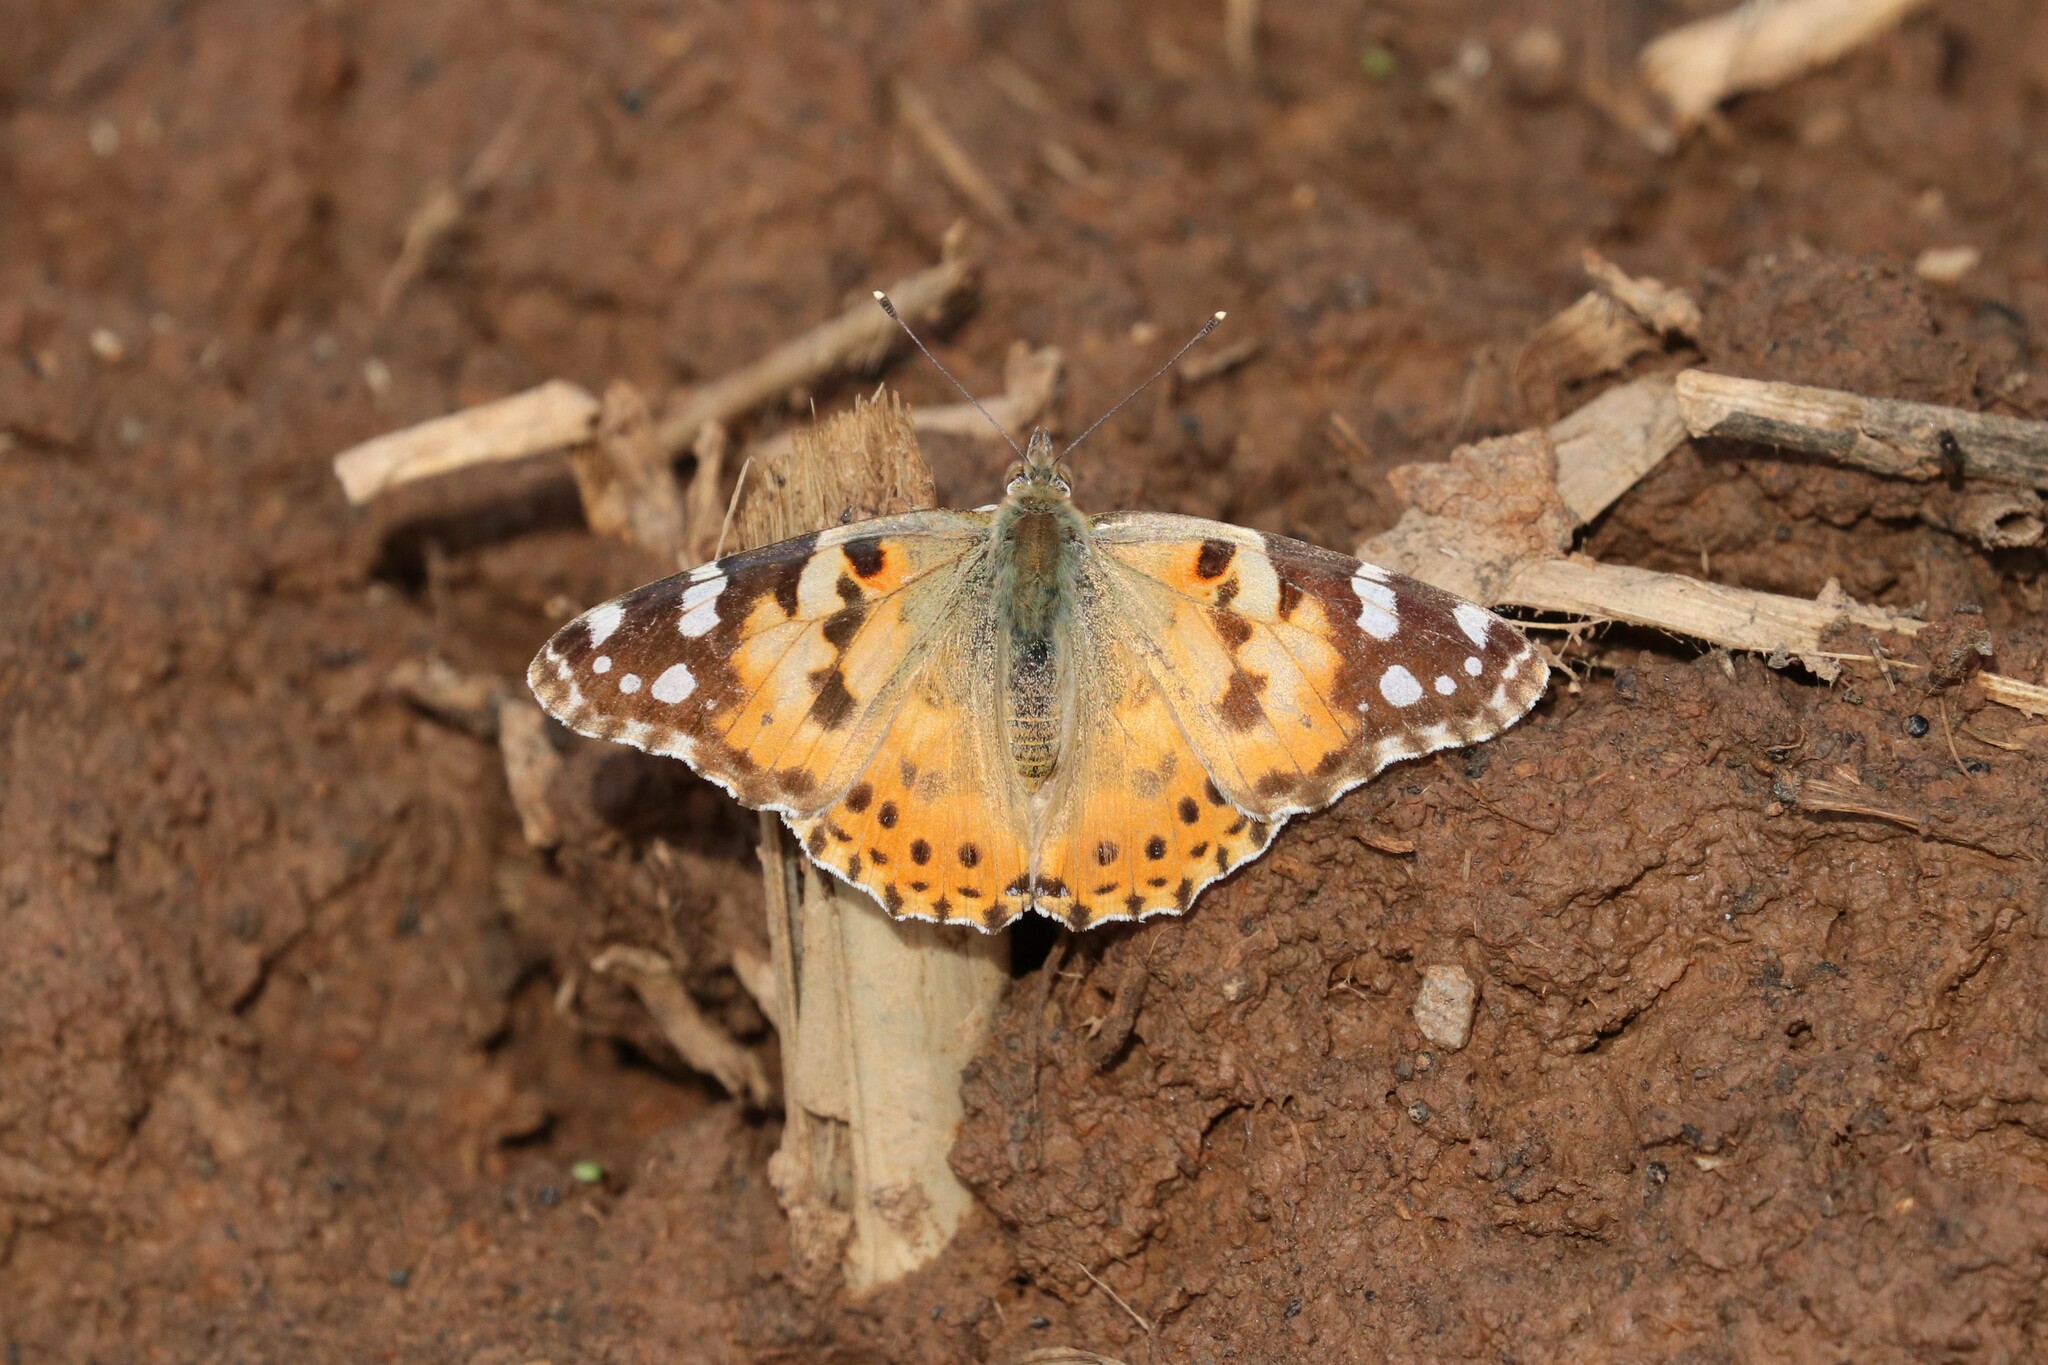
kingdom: Animalia
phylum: Arthropoda
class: Insecta
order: Lepidoptera
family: Nymphalidae
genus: Vanessa
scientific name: Vanessa cardui
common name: Painted lady
